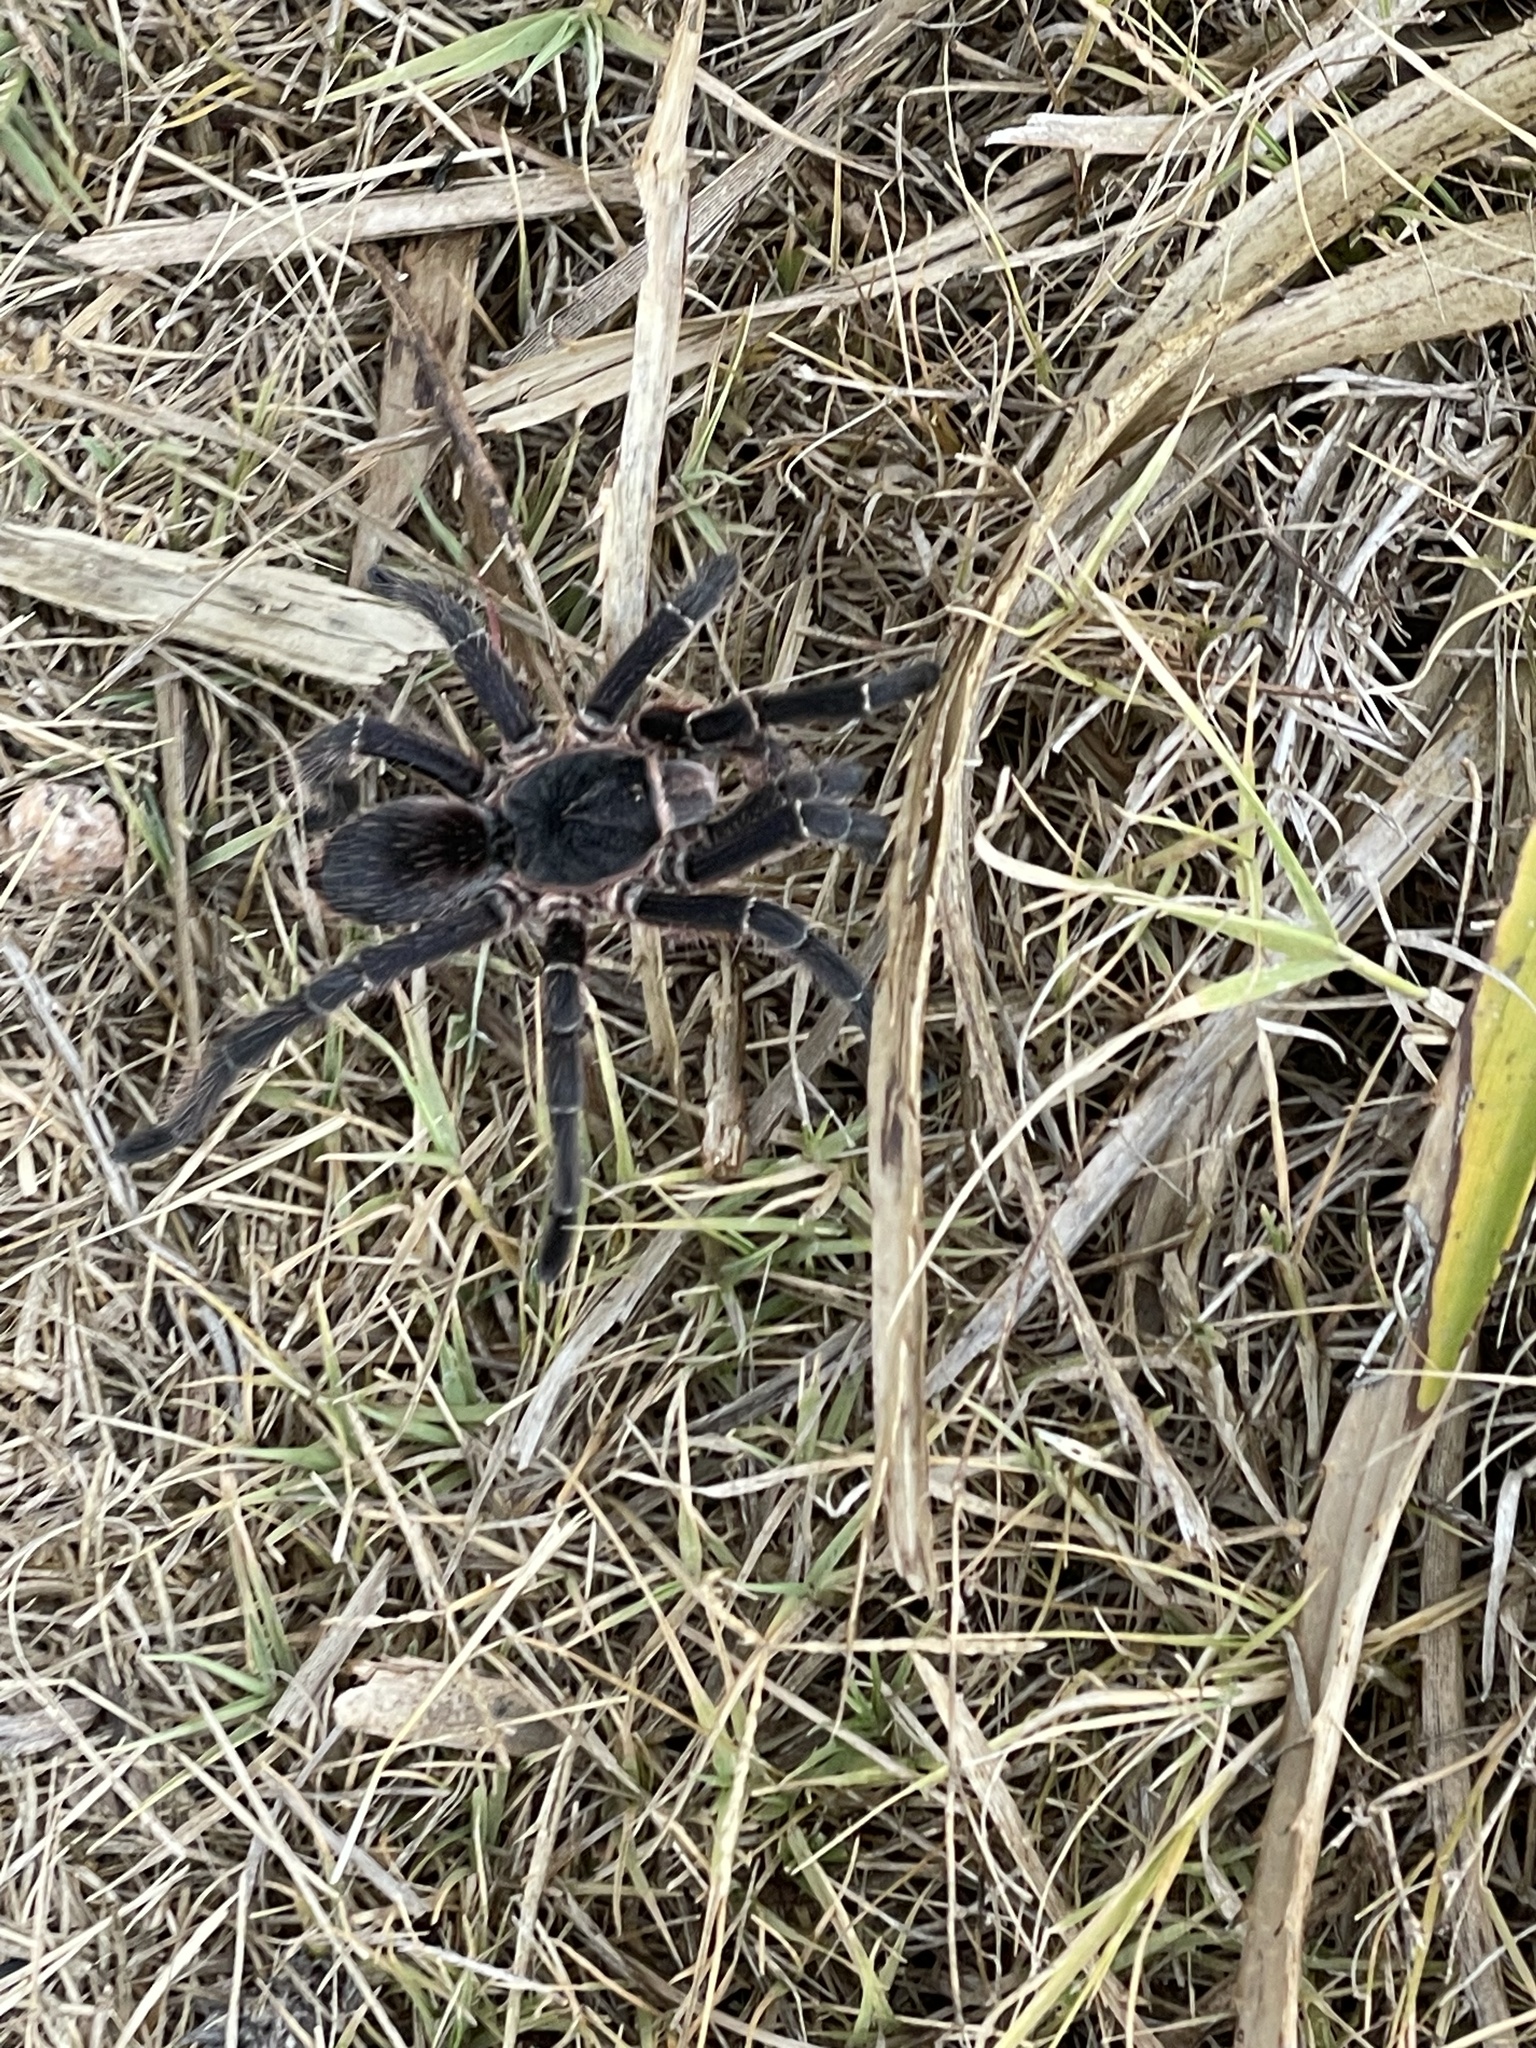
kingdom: Animalia
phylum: Arthropoda
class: Arachnida
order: Araneae
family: Theraphosidae
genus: Eupalaestrus
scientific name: Eupalaestrus weijenberghi
